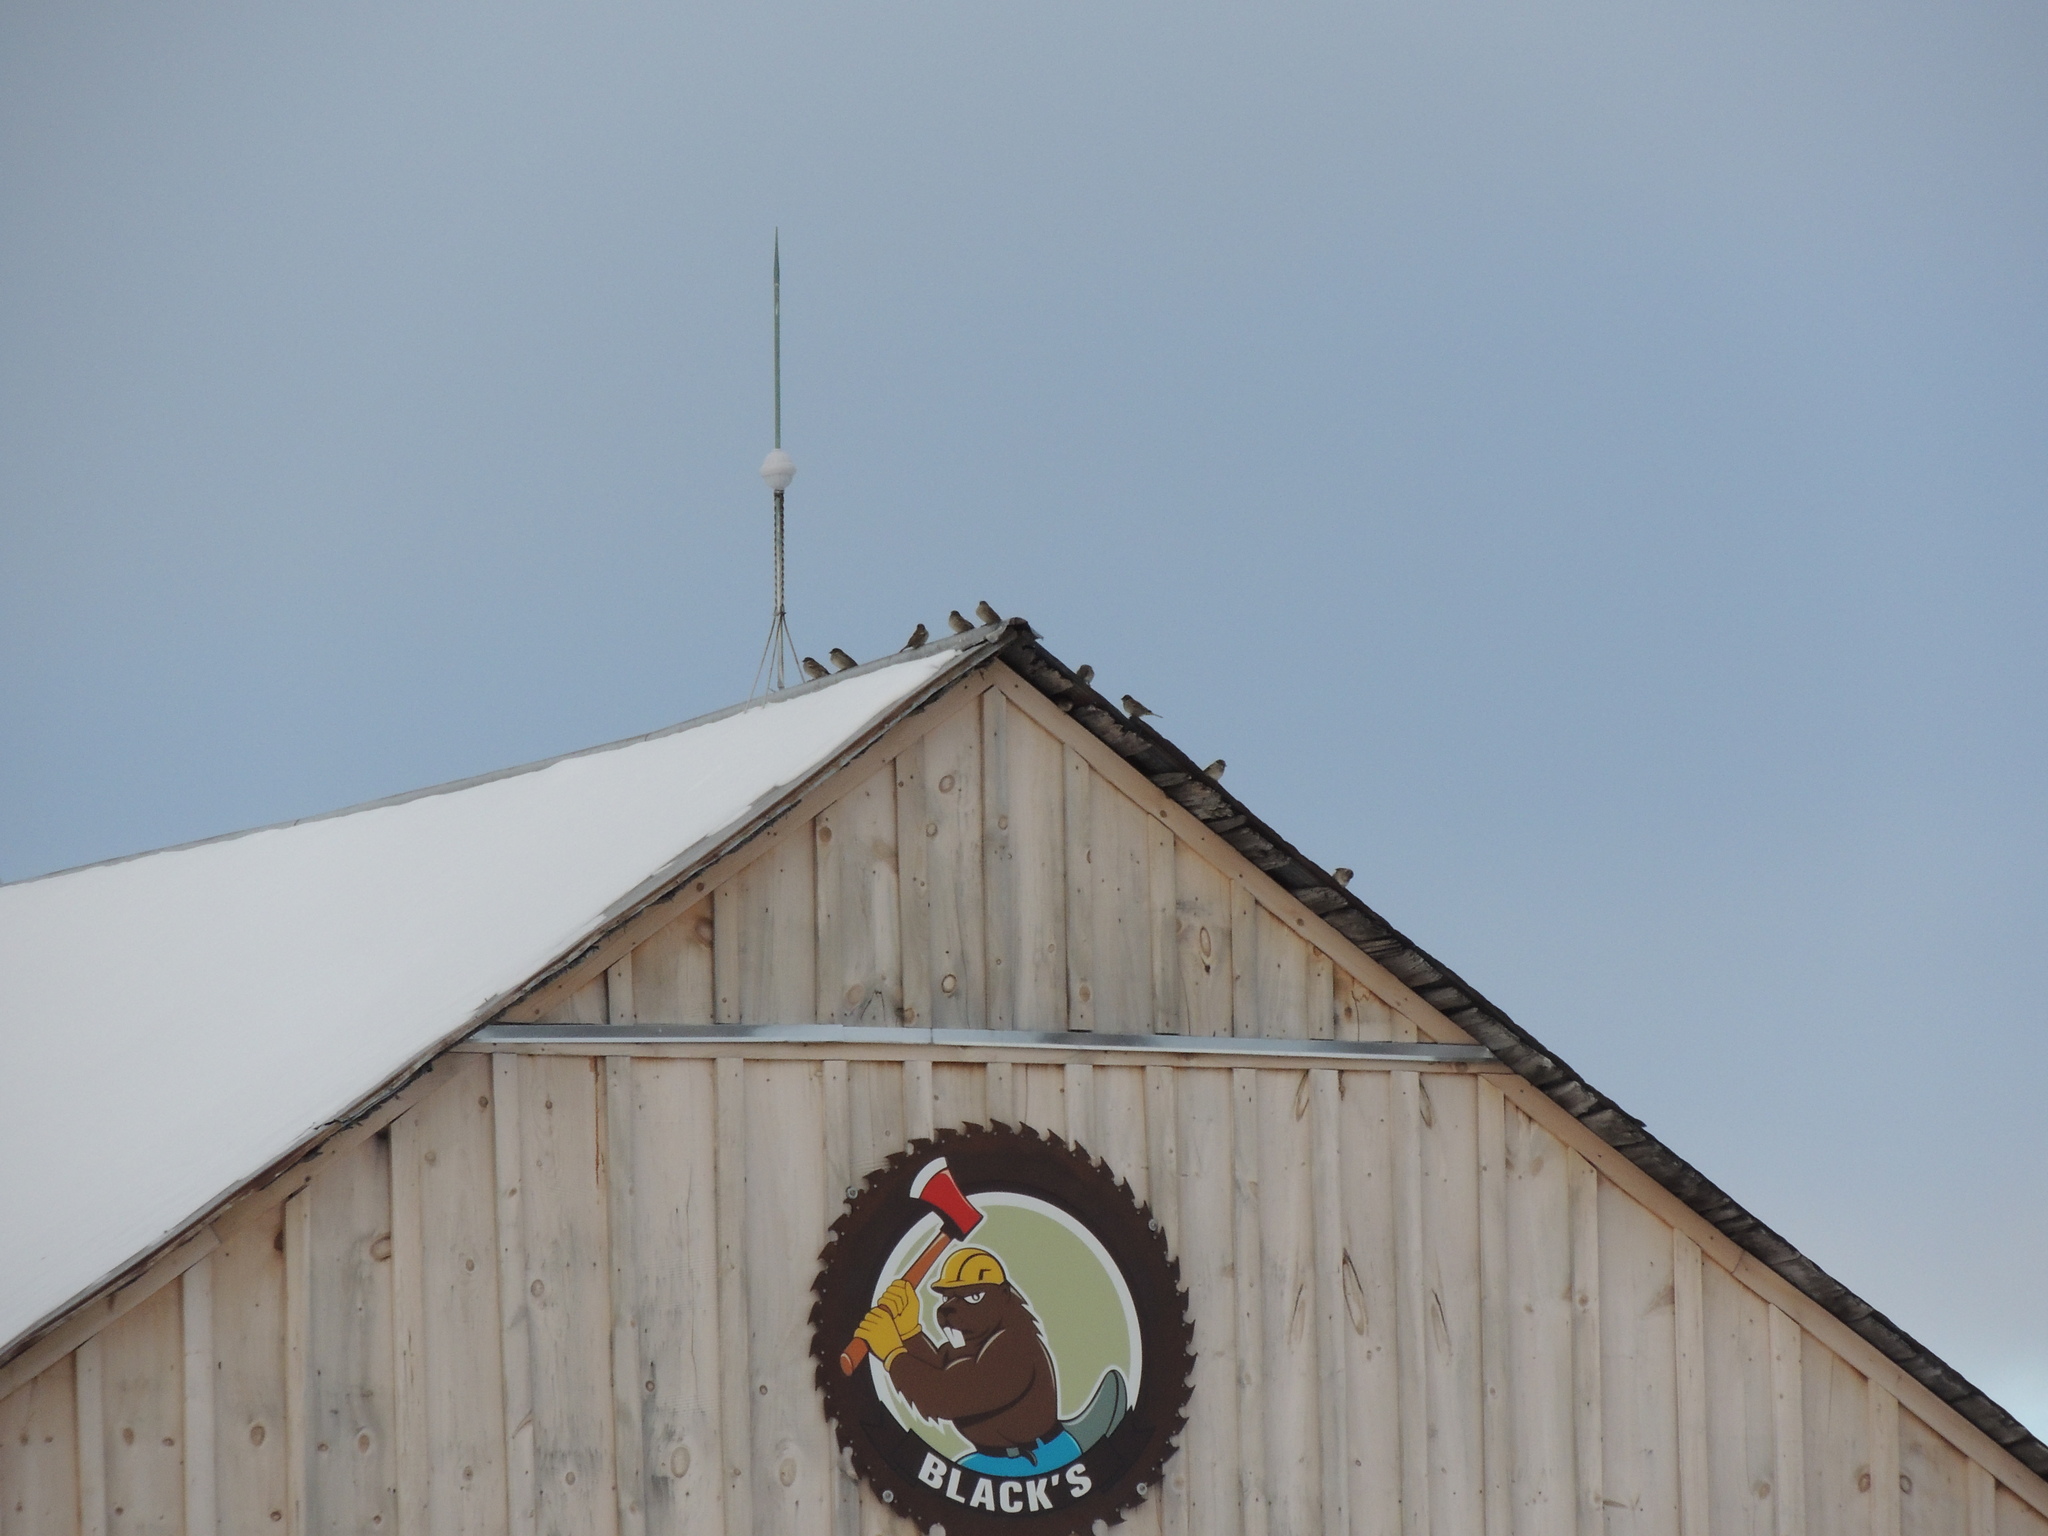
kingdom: Animalia
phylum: Chordata
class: Aves
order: Passeriformes
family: Passeridae
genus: Passer
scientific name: Passer domesticus
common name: House sparrow
